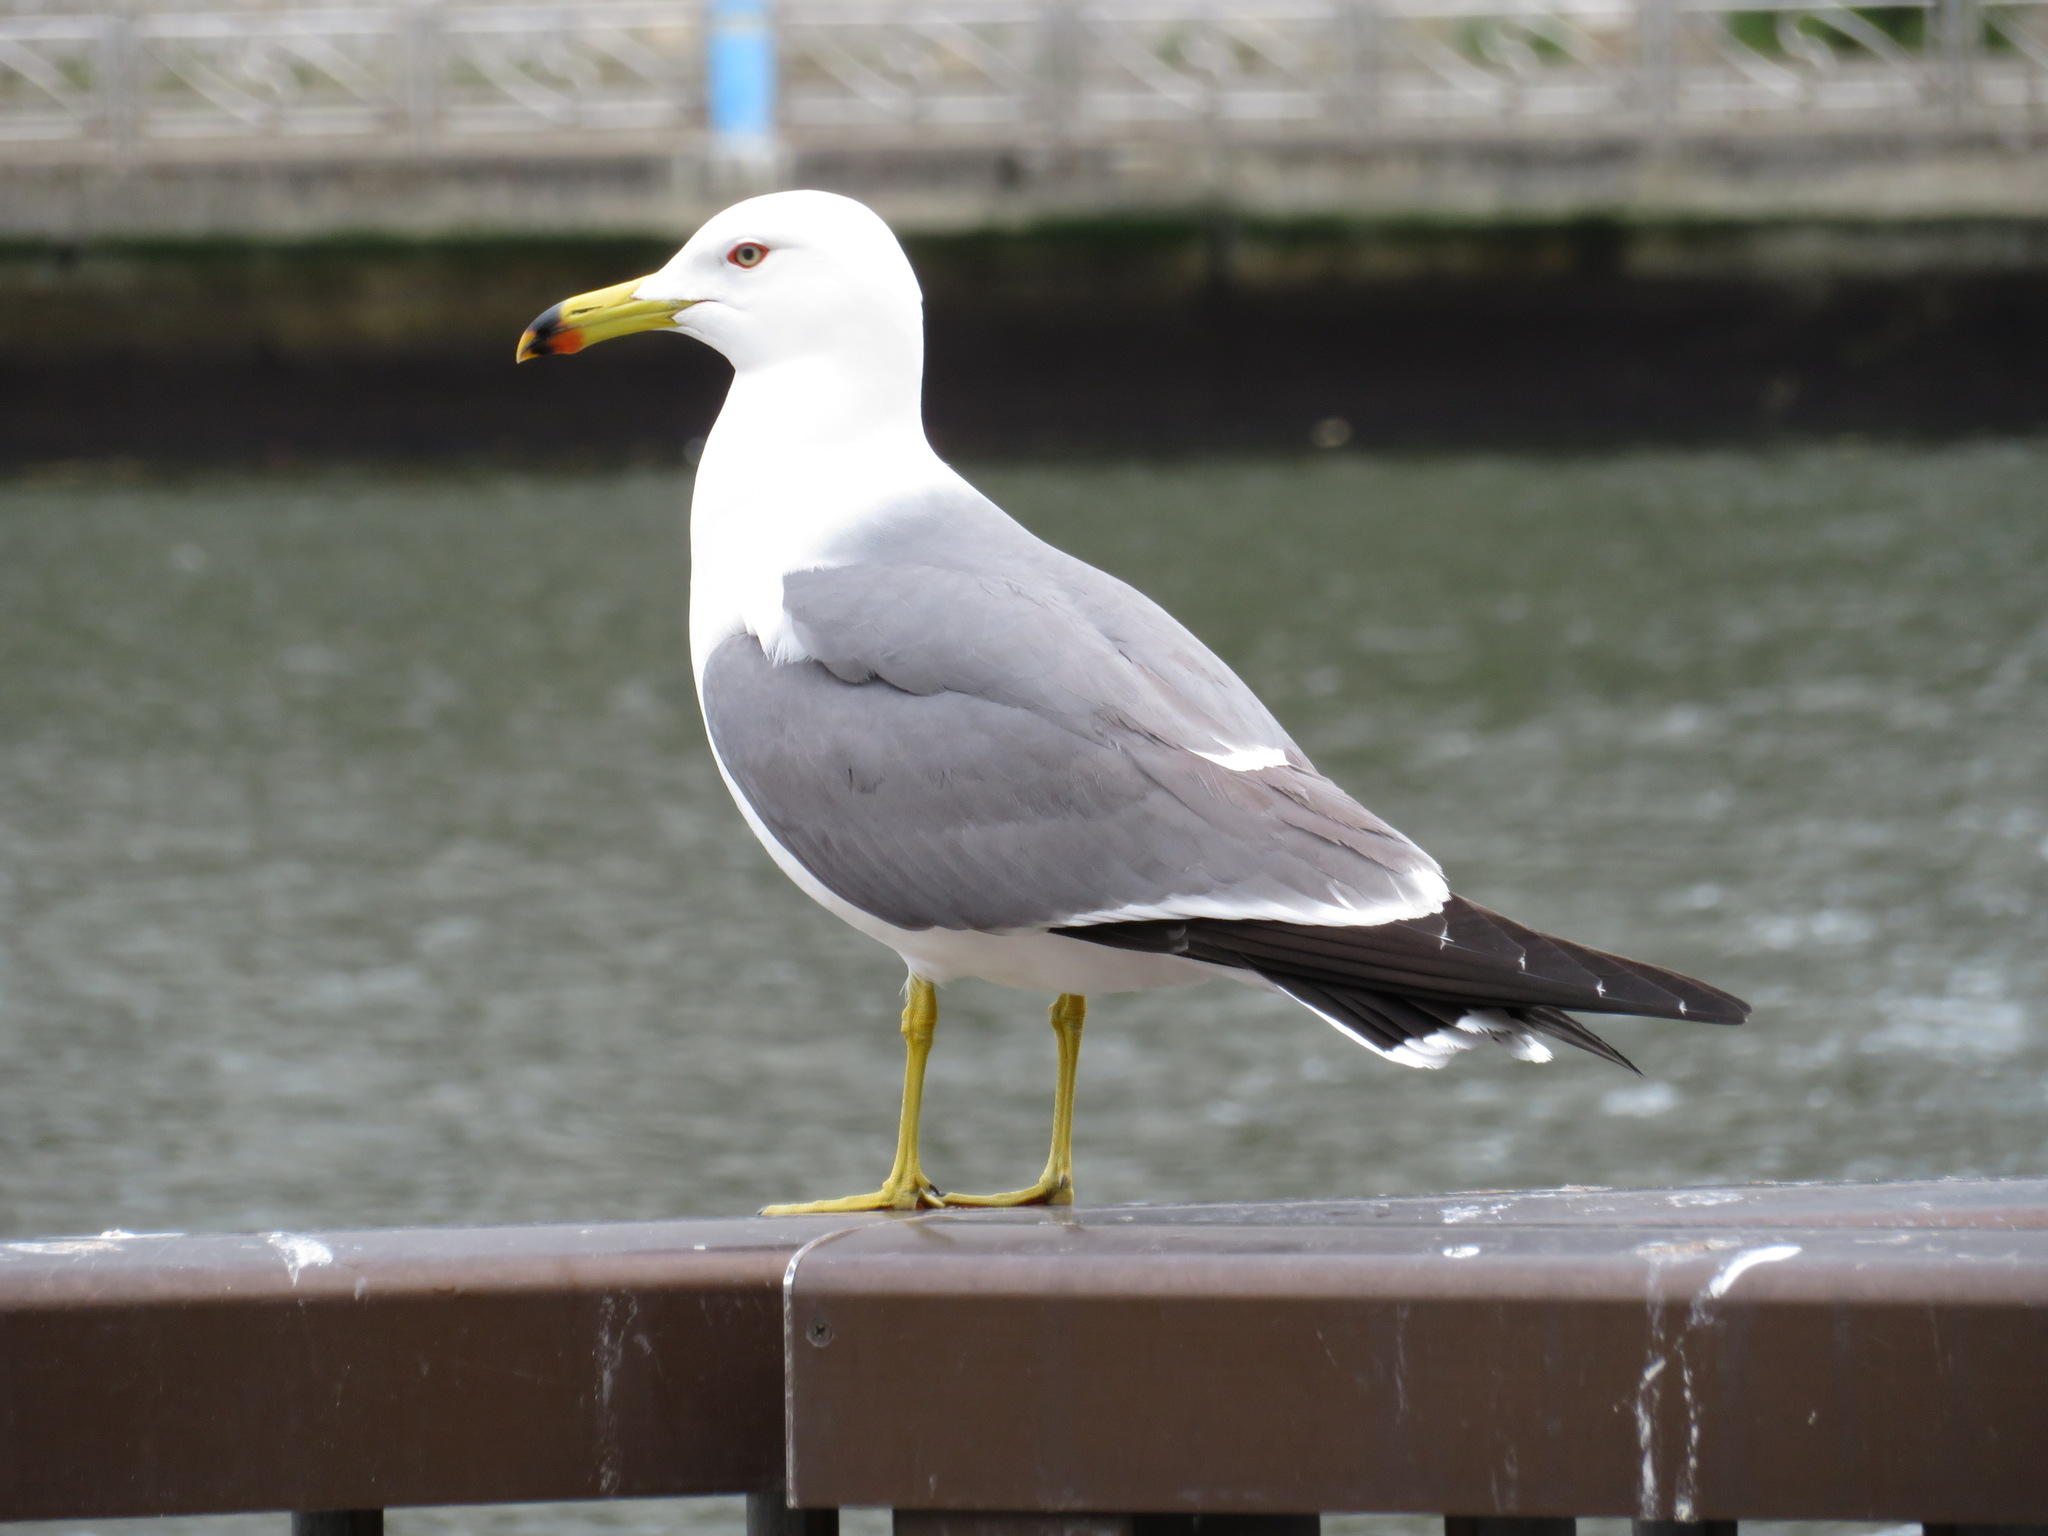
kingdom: Animalia
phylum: Chordata
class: Aves
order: Charadriiformes
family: Laridae
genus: Larus
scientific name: Larus crassirostris
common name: Black-tailed gull
